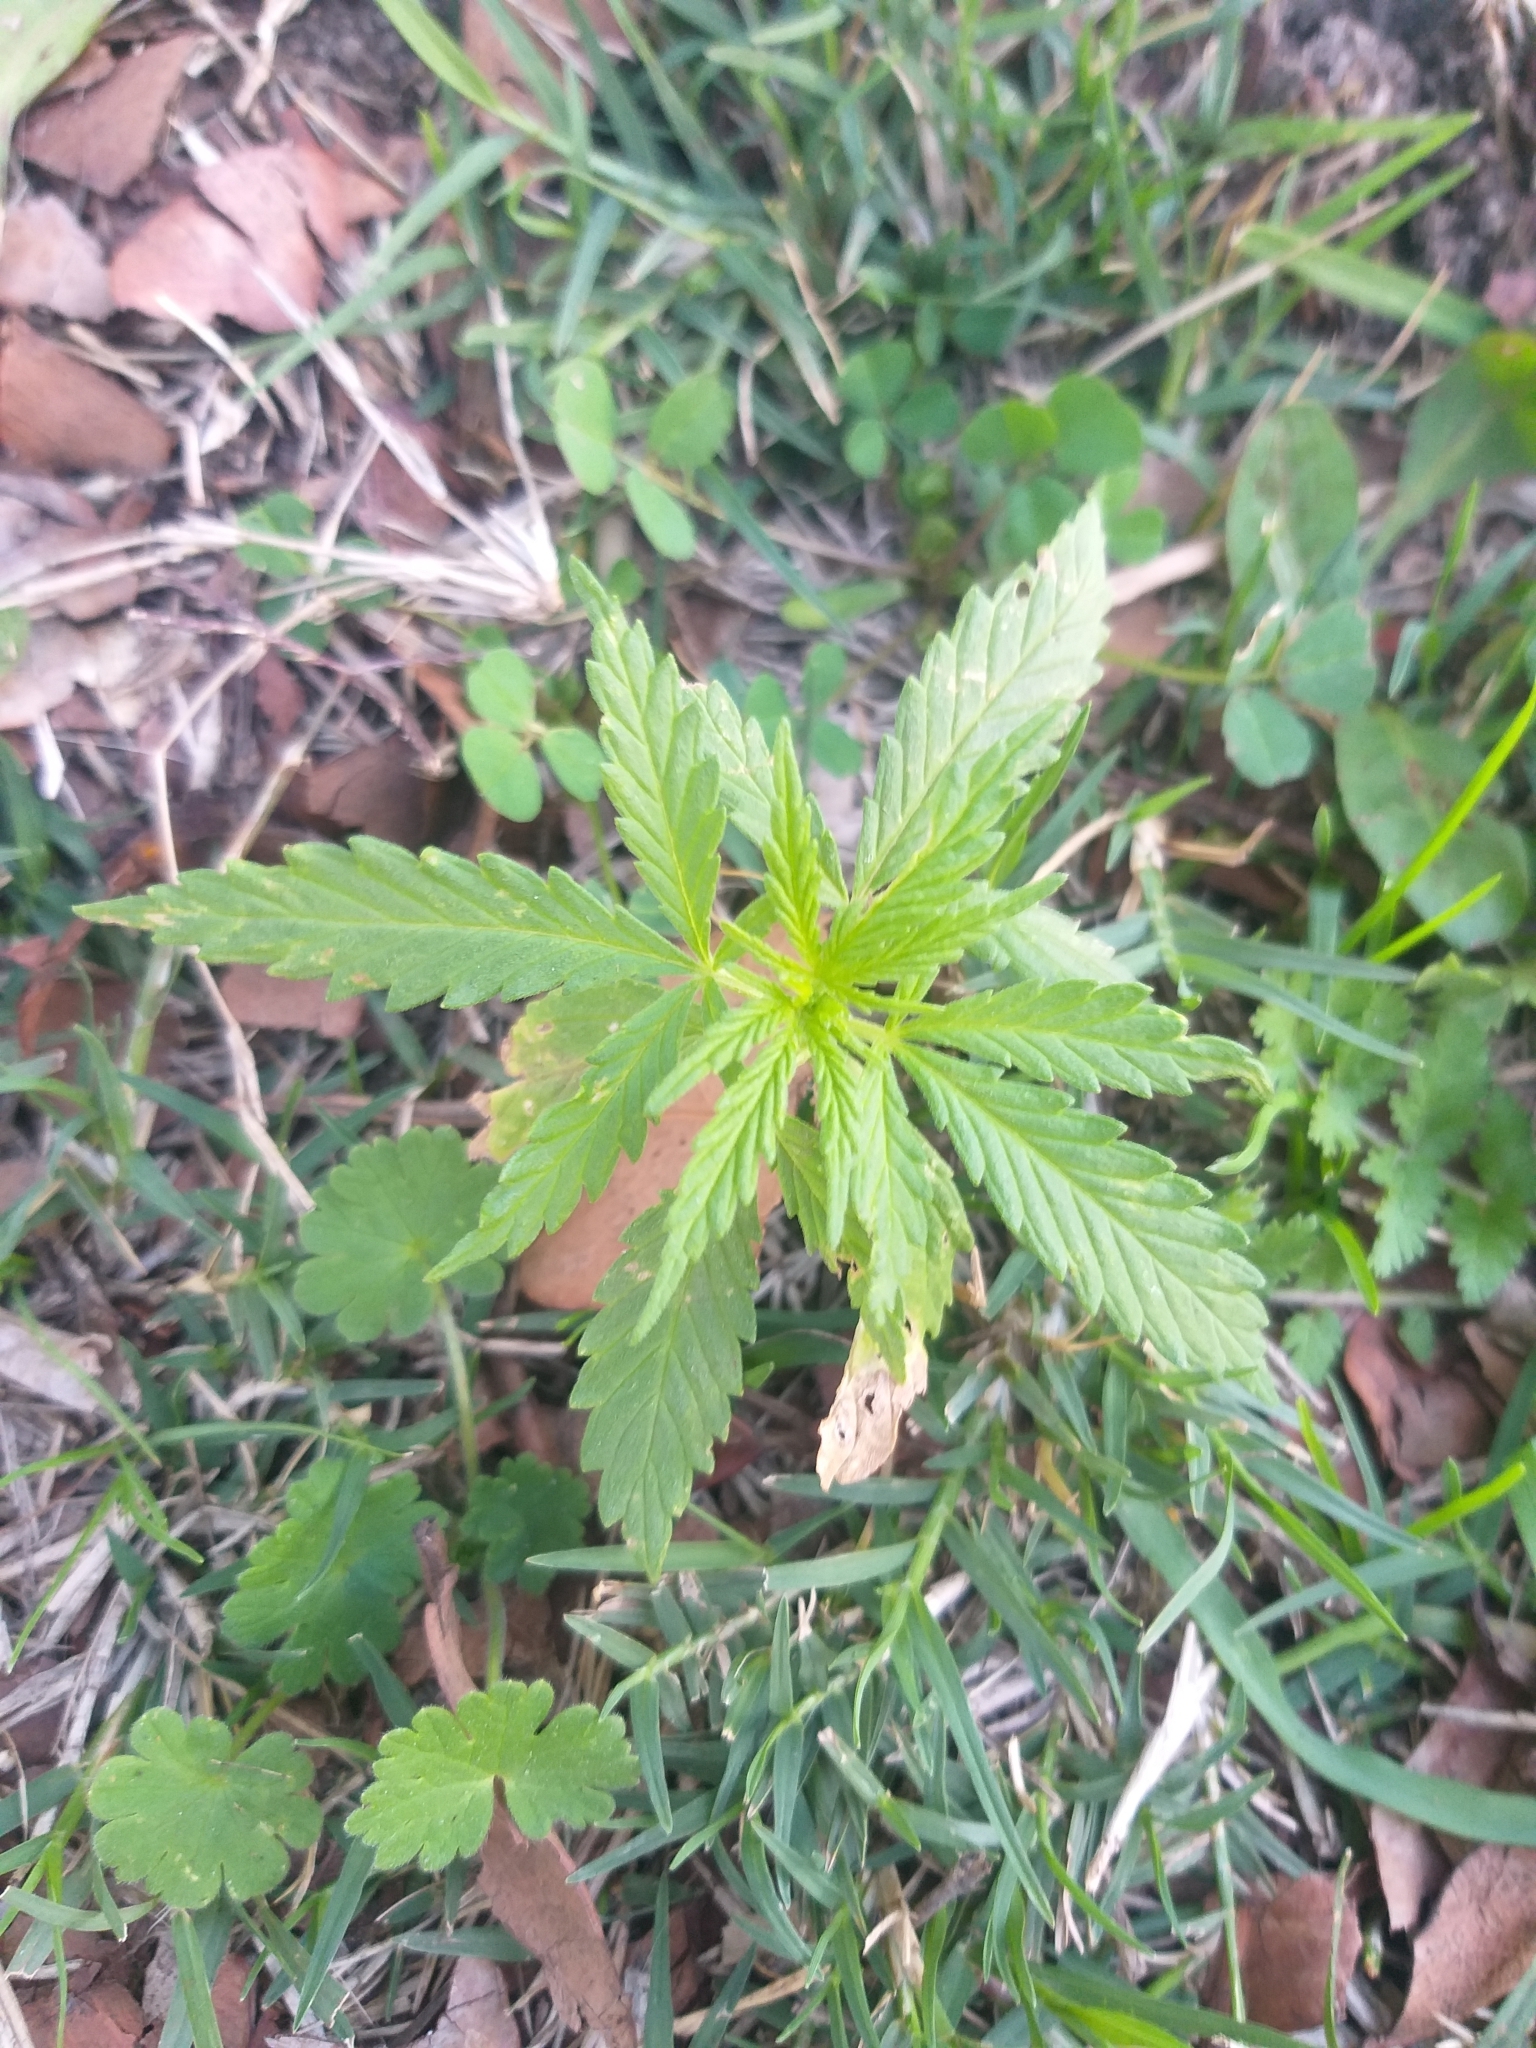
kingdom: Plantae
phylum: Tracheophyta
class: Magnoliopsida
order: Rosales
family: Cannabaceae
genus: Cannabis
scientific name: Cannabis sativa
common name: Hemp
